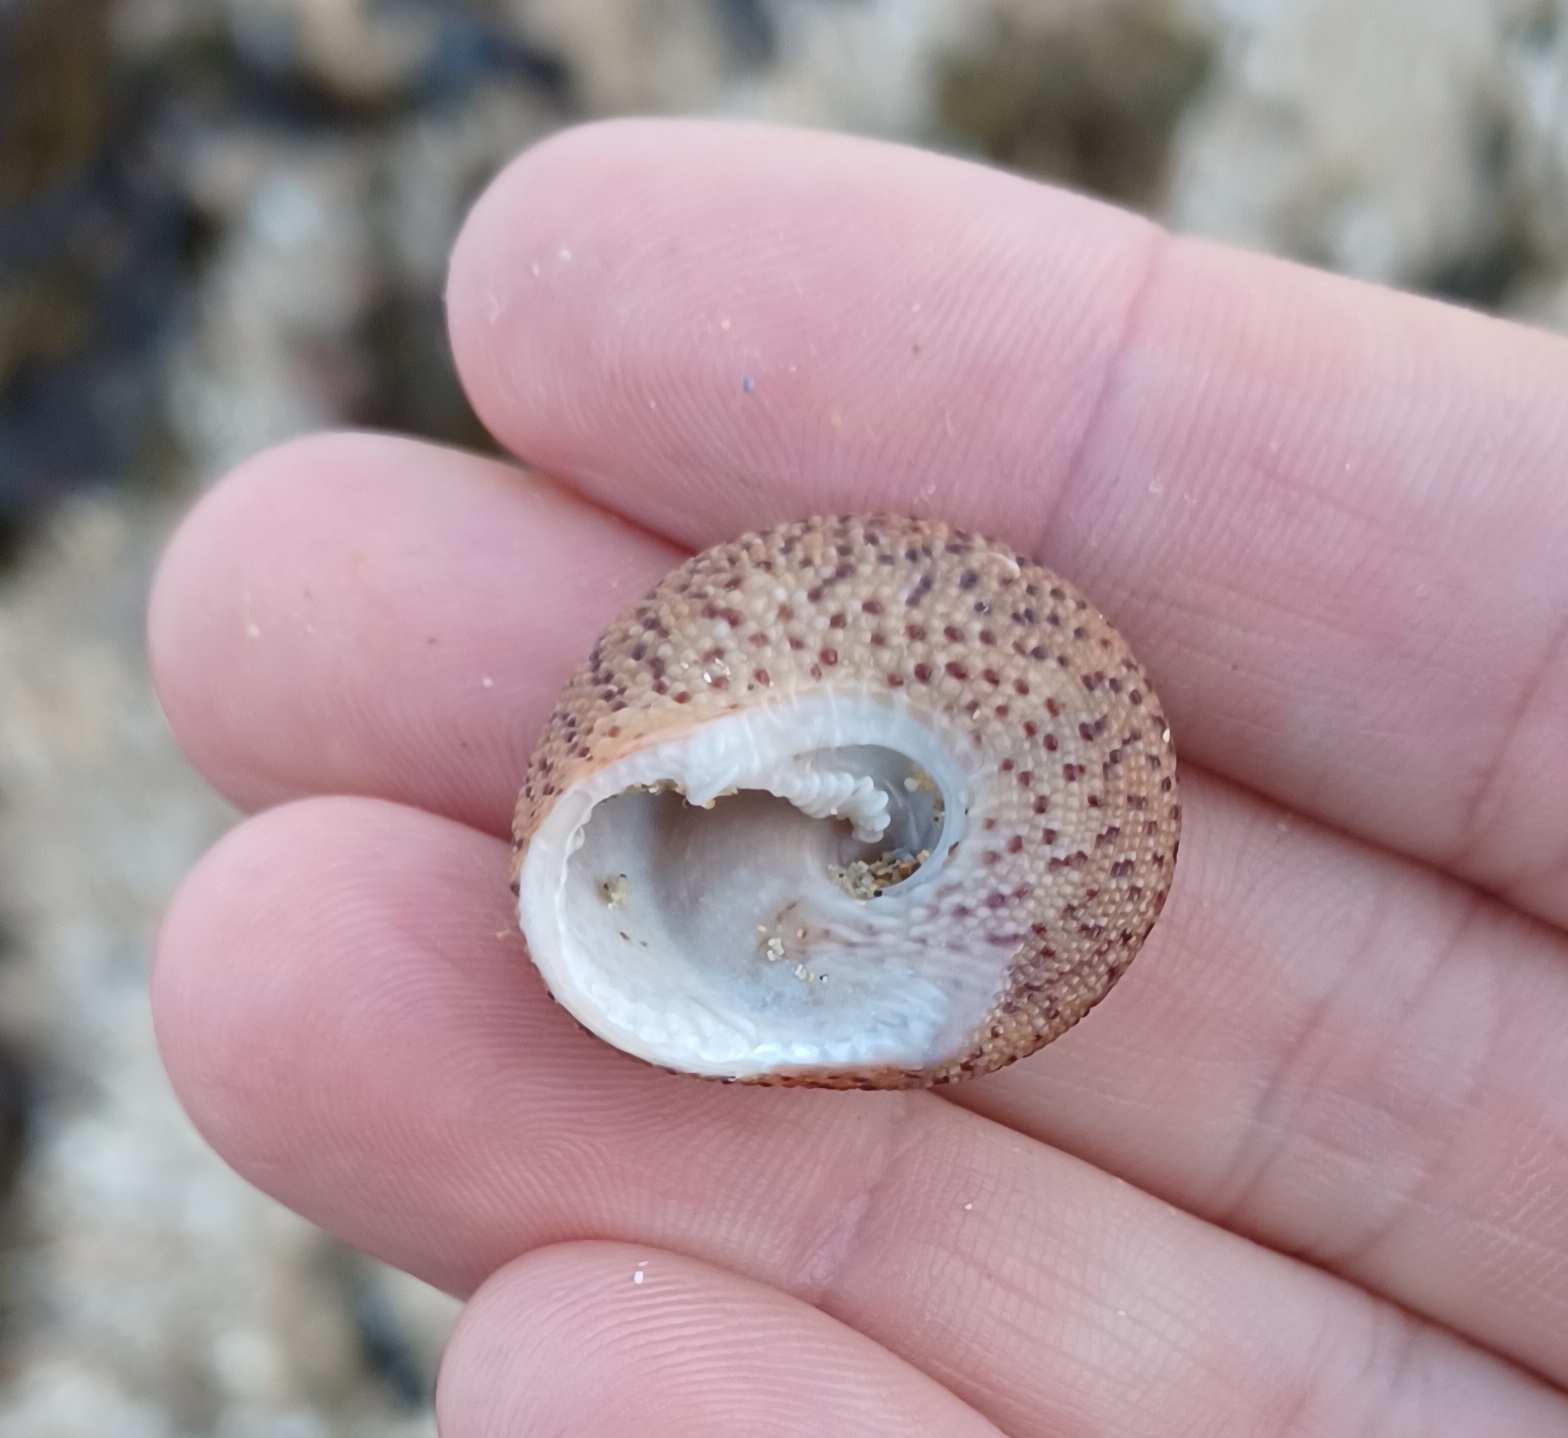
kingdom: Animalia
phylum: Mollusca
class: Gastropoda
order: Trochida
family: Trochidae
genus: Clanculus
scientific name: Clanculus undatus
